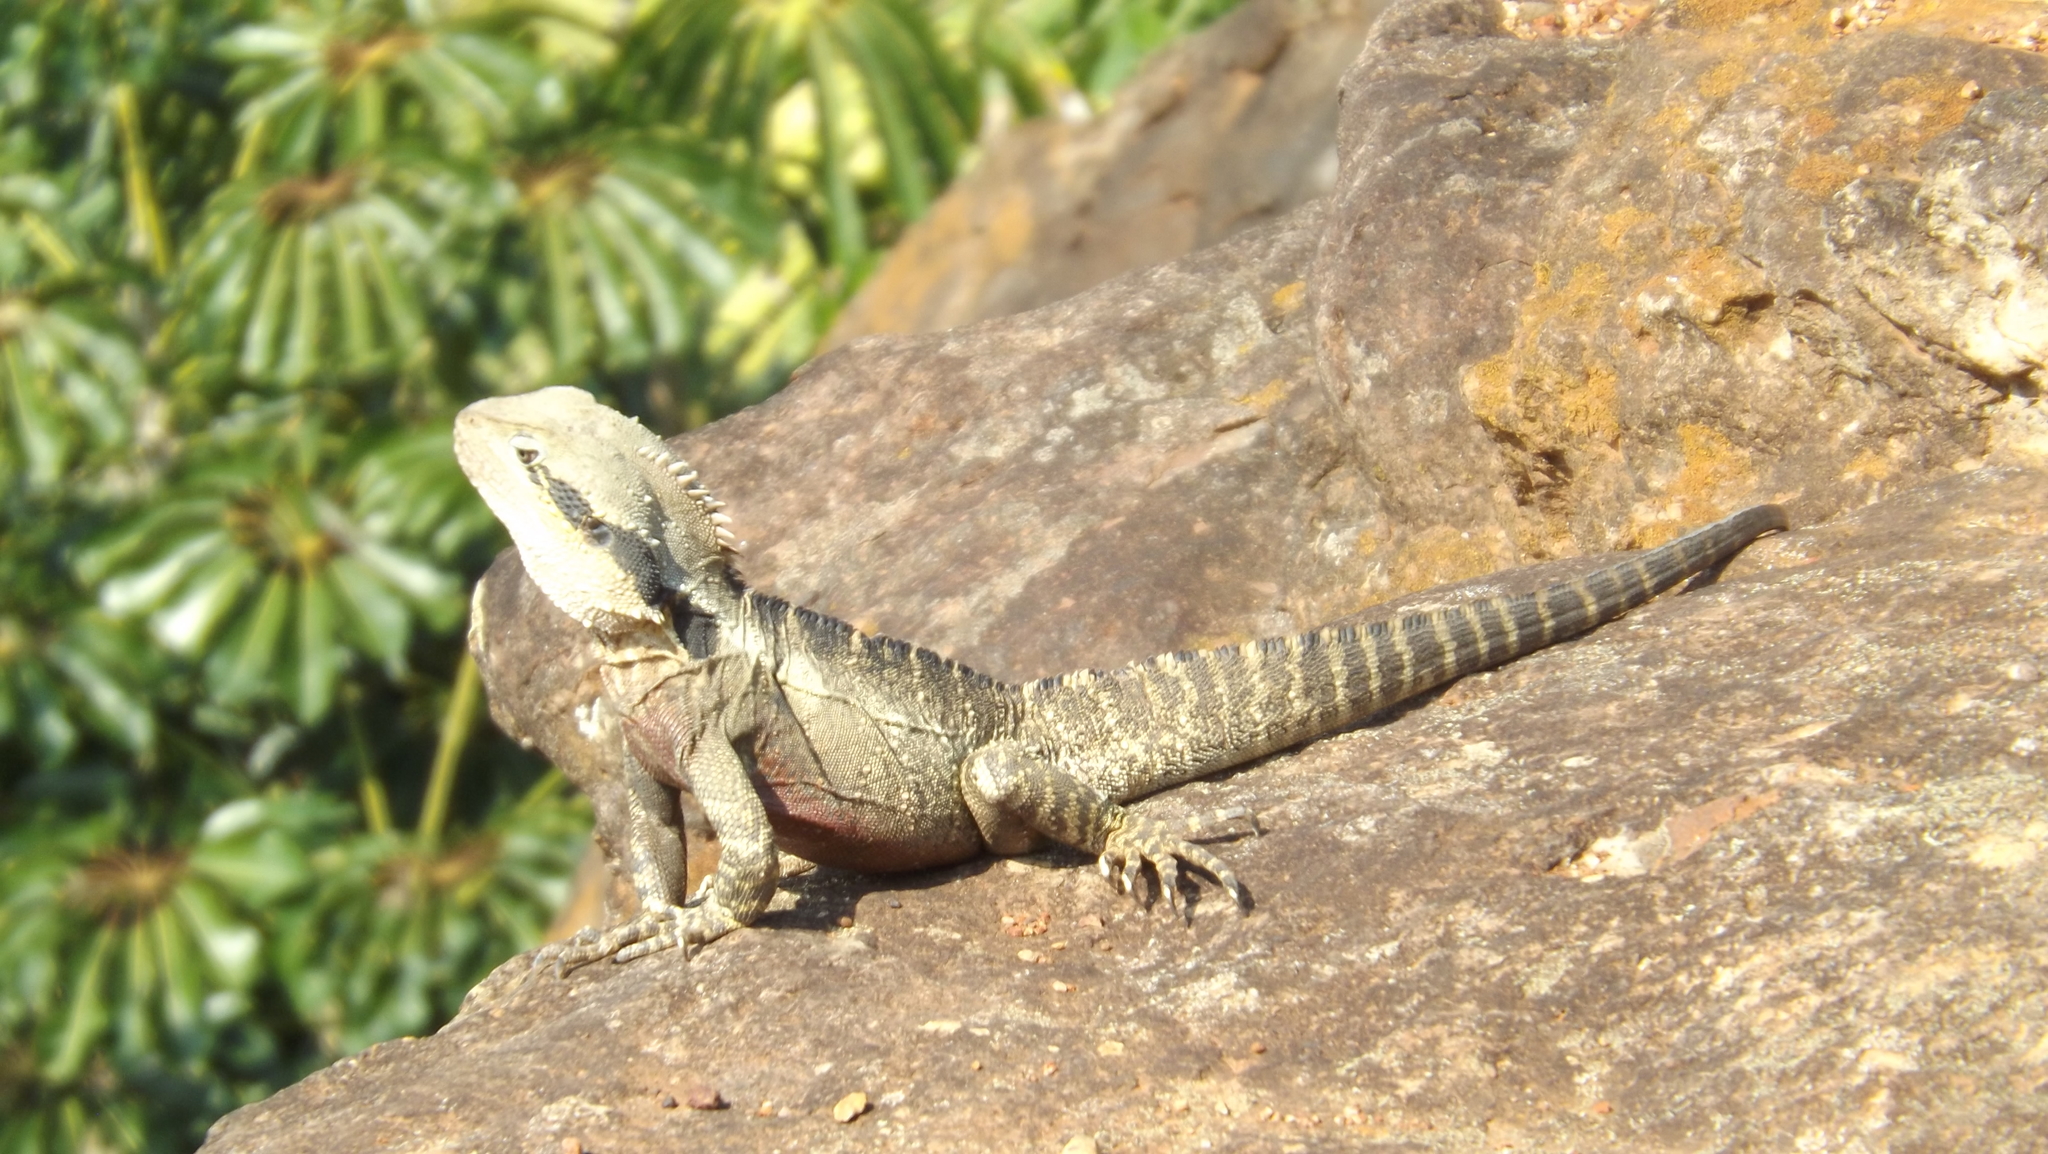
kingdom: Animalia
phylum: Chordata
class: Squamata
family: Agamidae
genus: Intellagama
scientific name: Intellagama lesueurii
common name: Eastern water dragon
